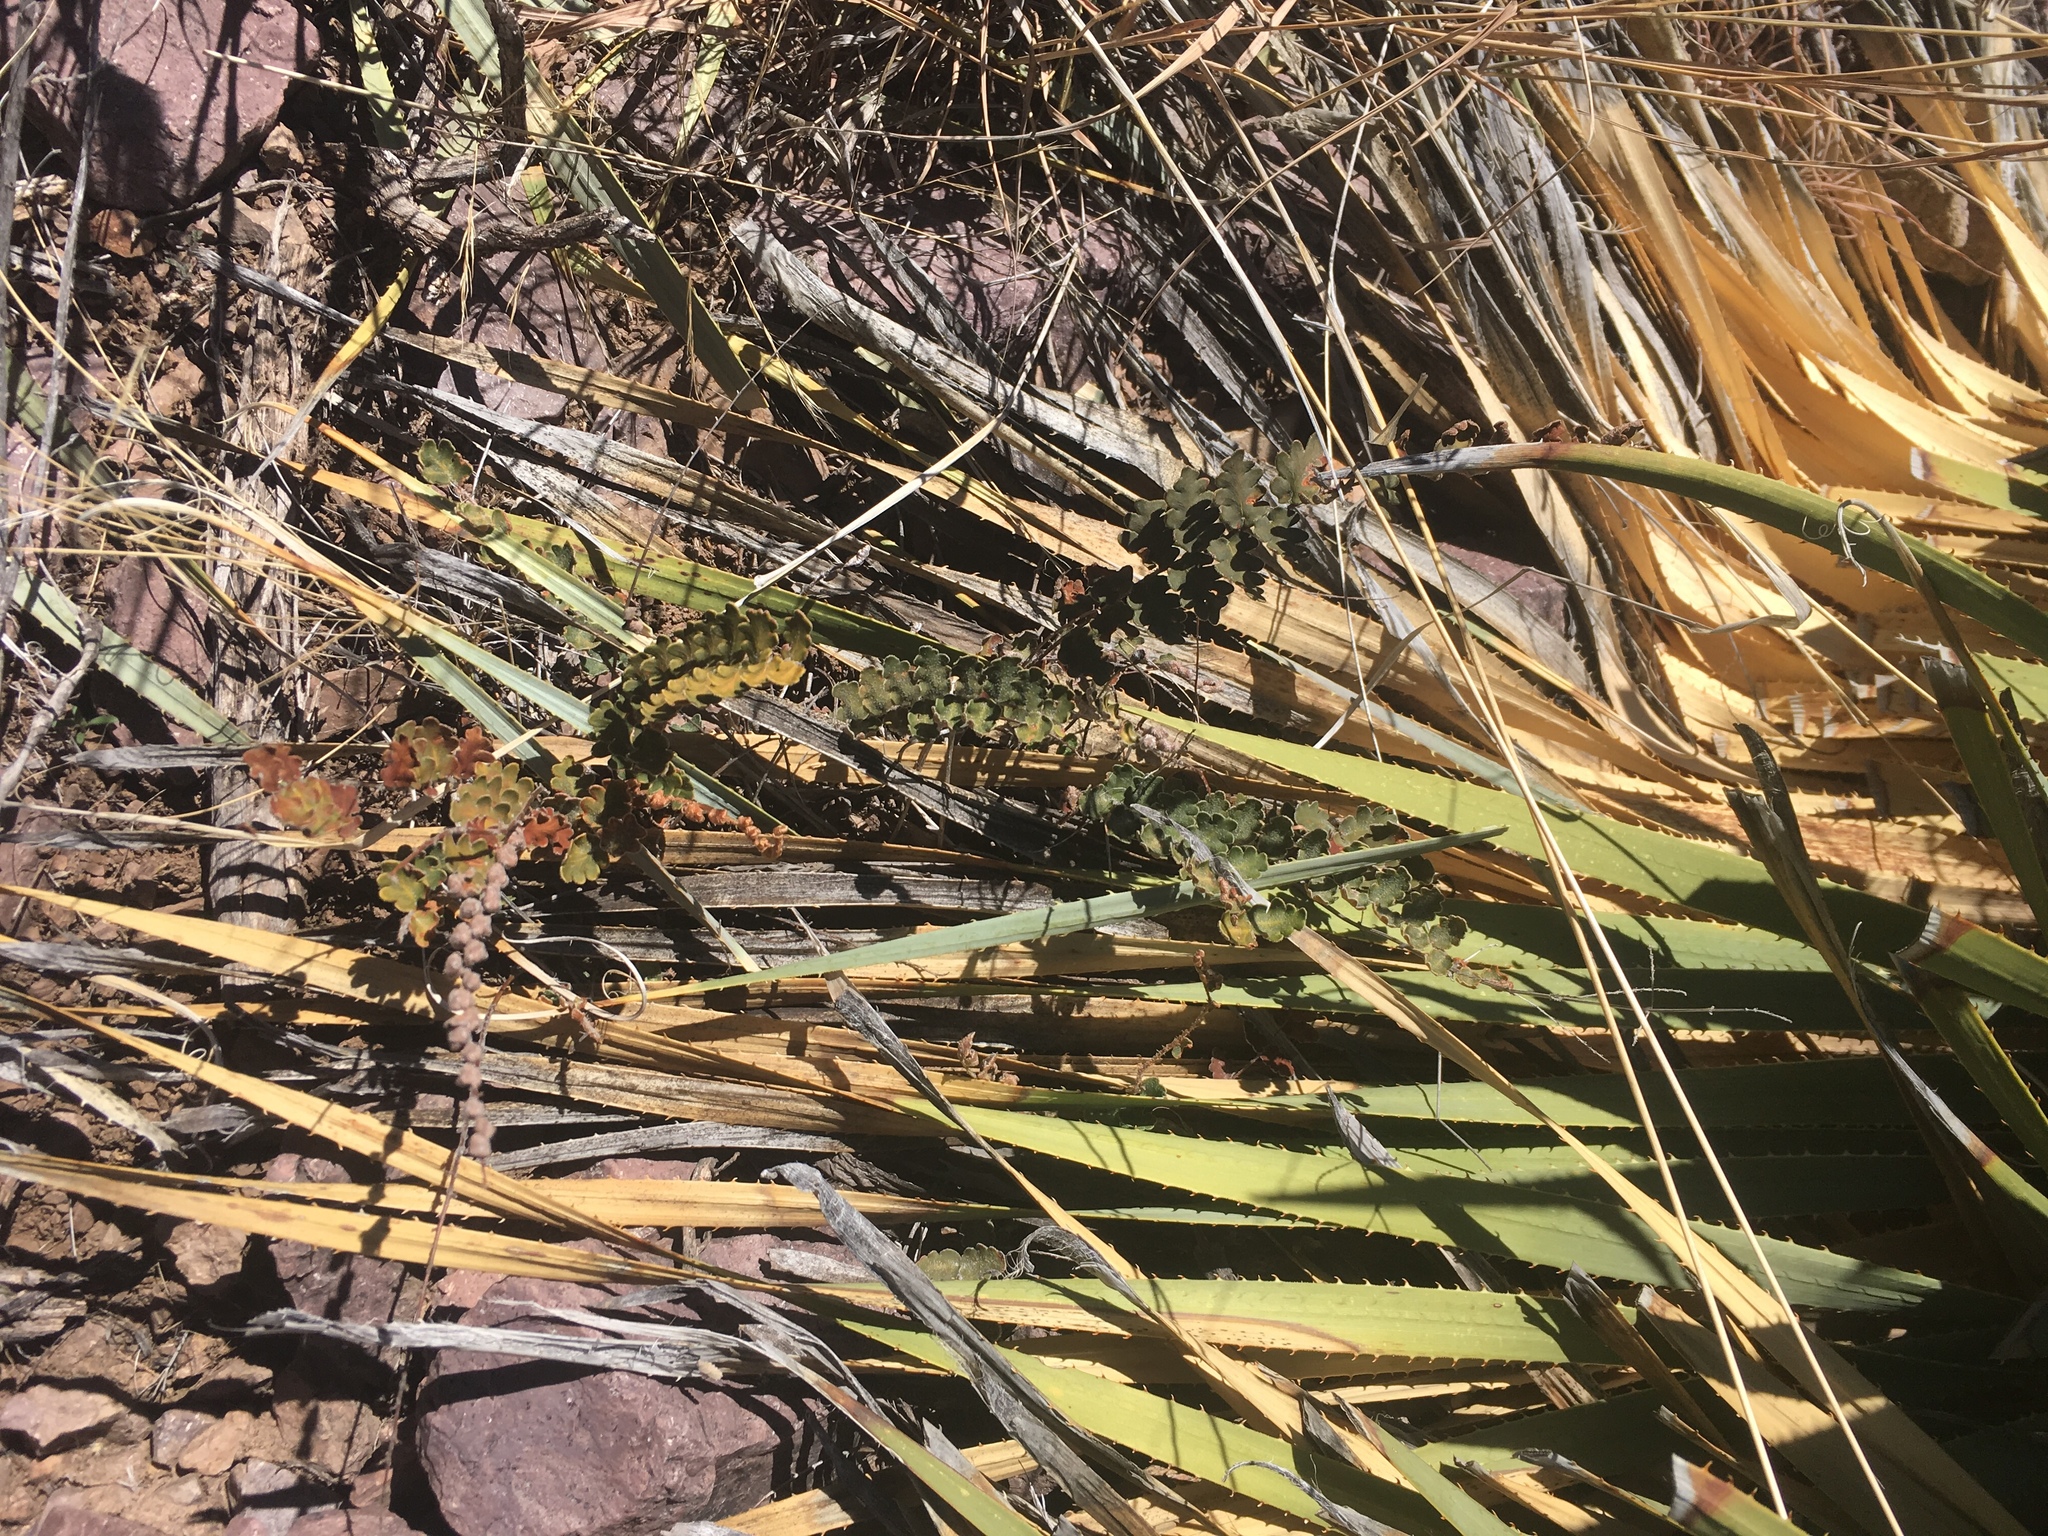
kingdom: Plantae
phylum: Tracheophyta
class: Polypodiopsida
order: Polypodiales
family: Pteridaceae
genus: Astrolepis
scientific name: Astrolepis sinuata
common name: Wavy scaly cloakfern
